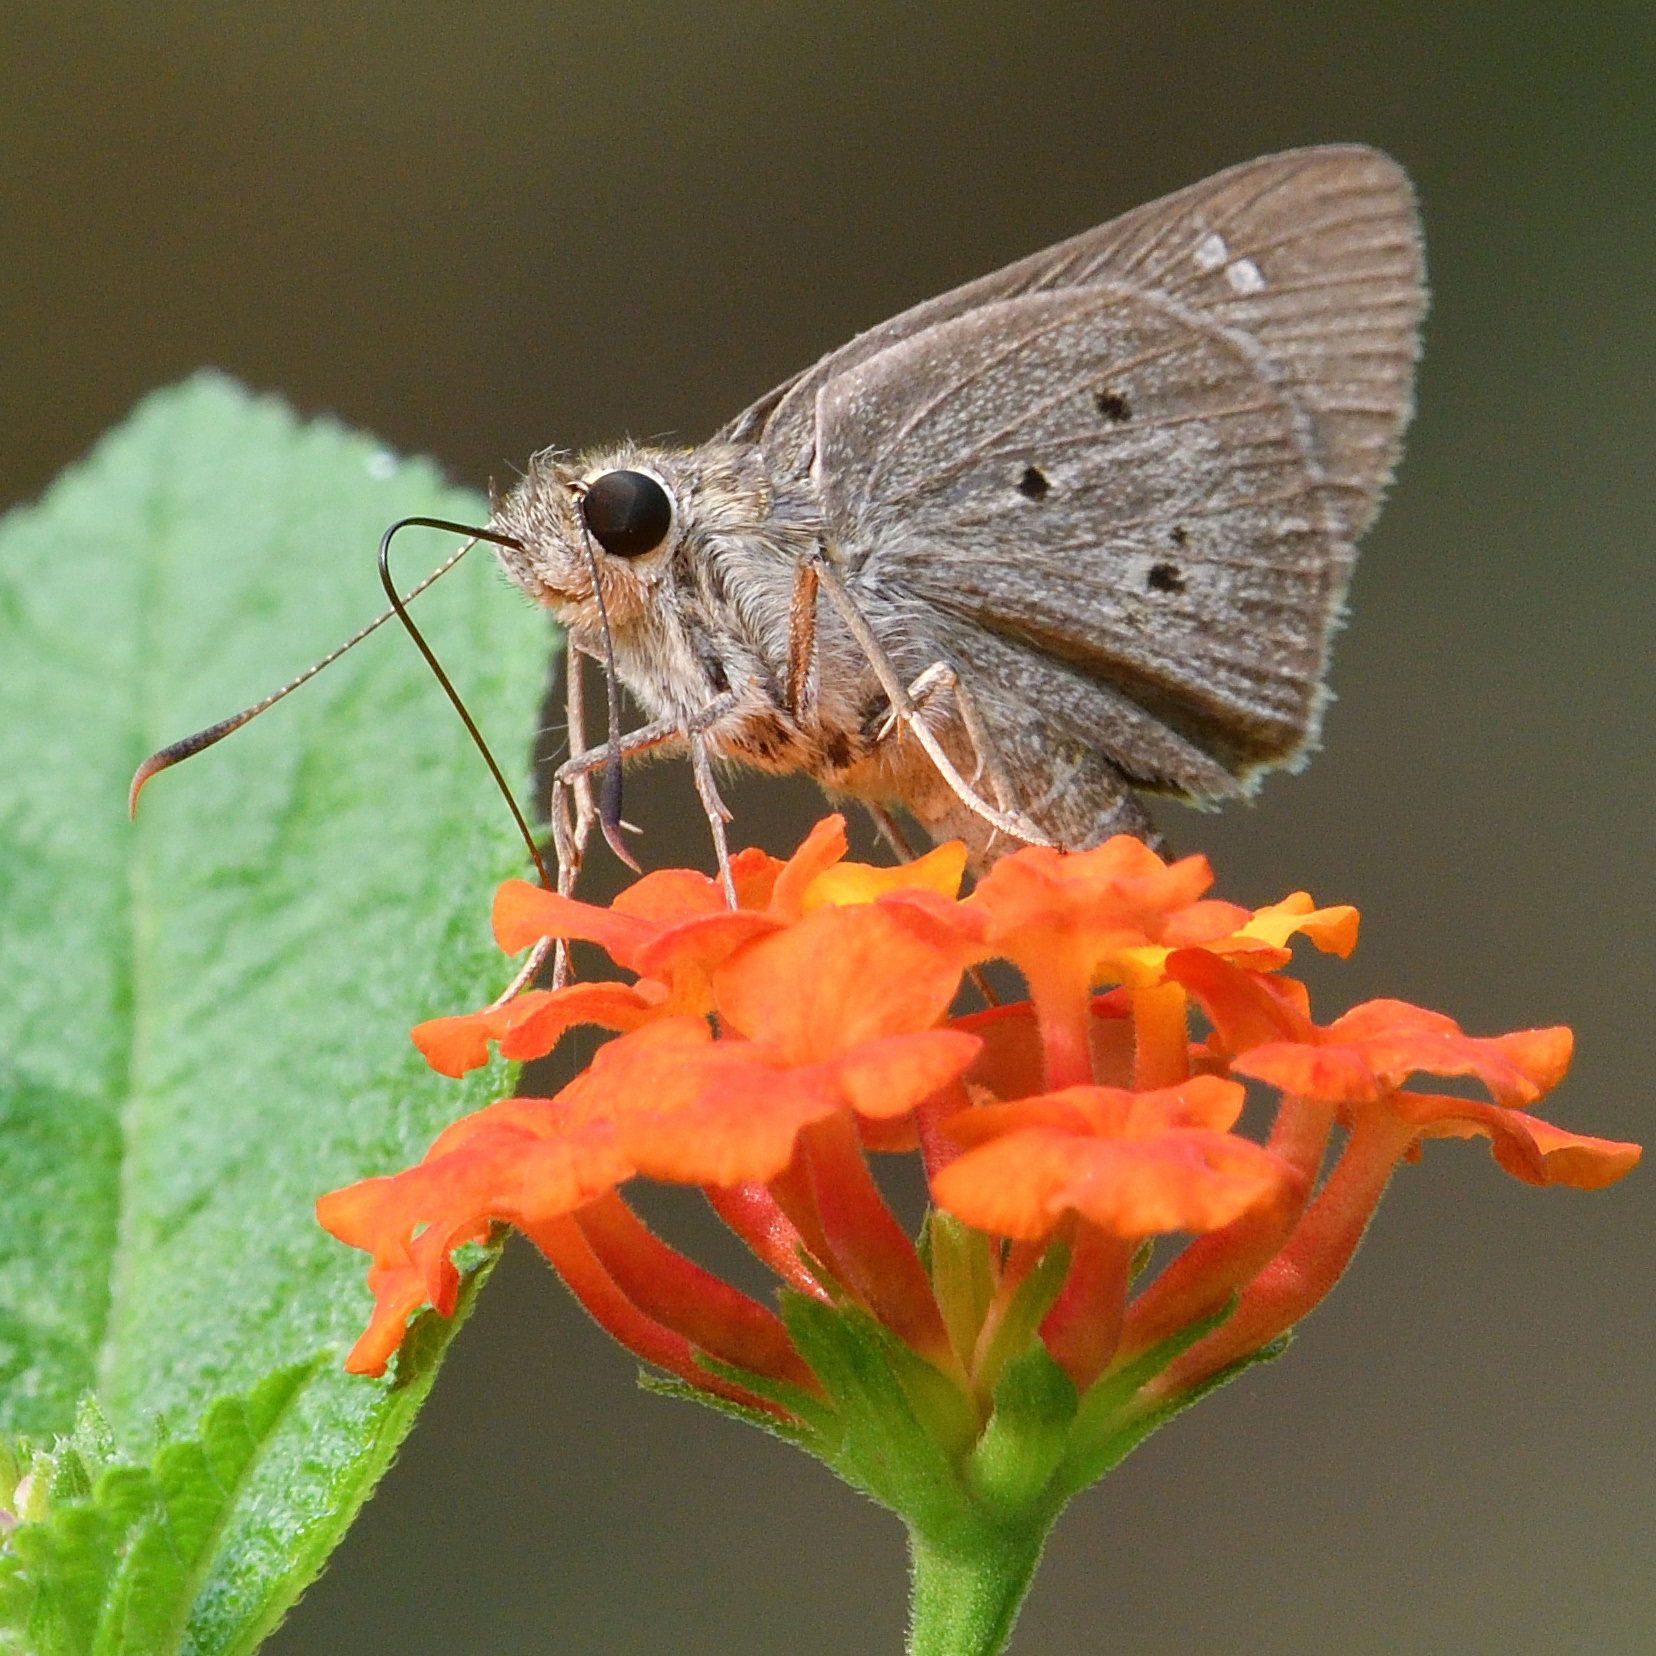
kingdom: Animalia
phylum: Arthropoda
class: Insecta
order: Lepidoptera
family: Hesperiidae
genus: Suastus
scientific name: Suastus gremius
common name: Indian palm bob
